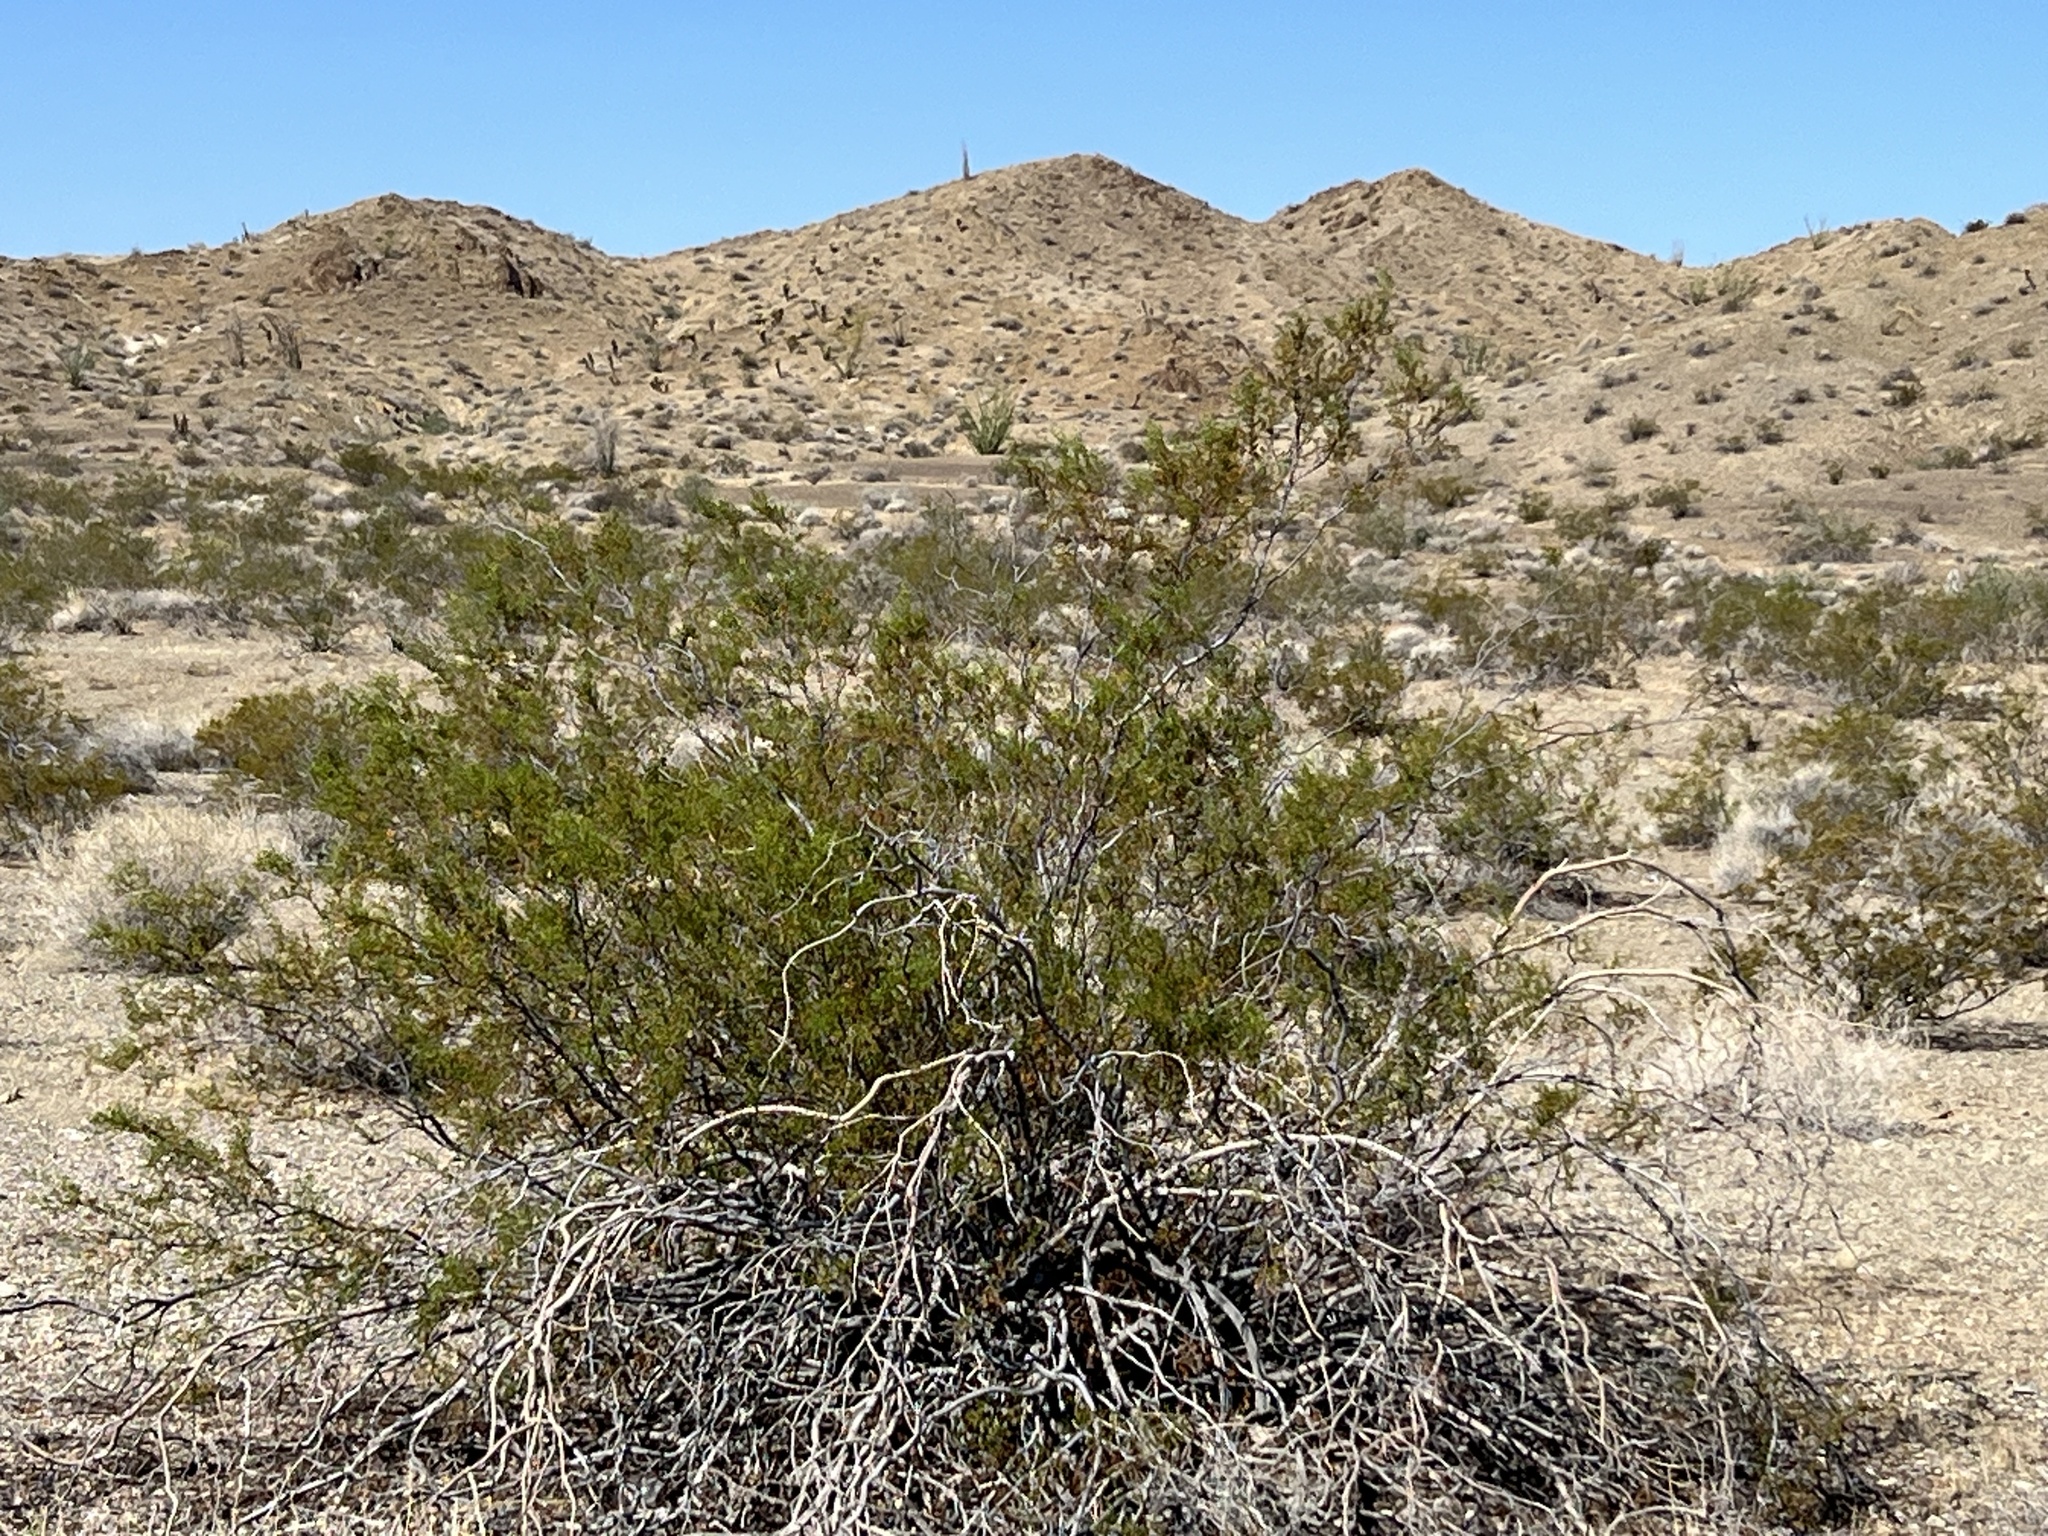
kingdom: Plantae
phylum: Tracheophyta
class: Magnoliopsida
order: Zygophyllales
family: Zygophyllaceae
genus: Larrea
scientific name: Larrea tridentata
